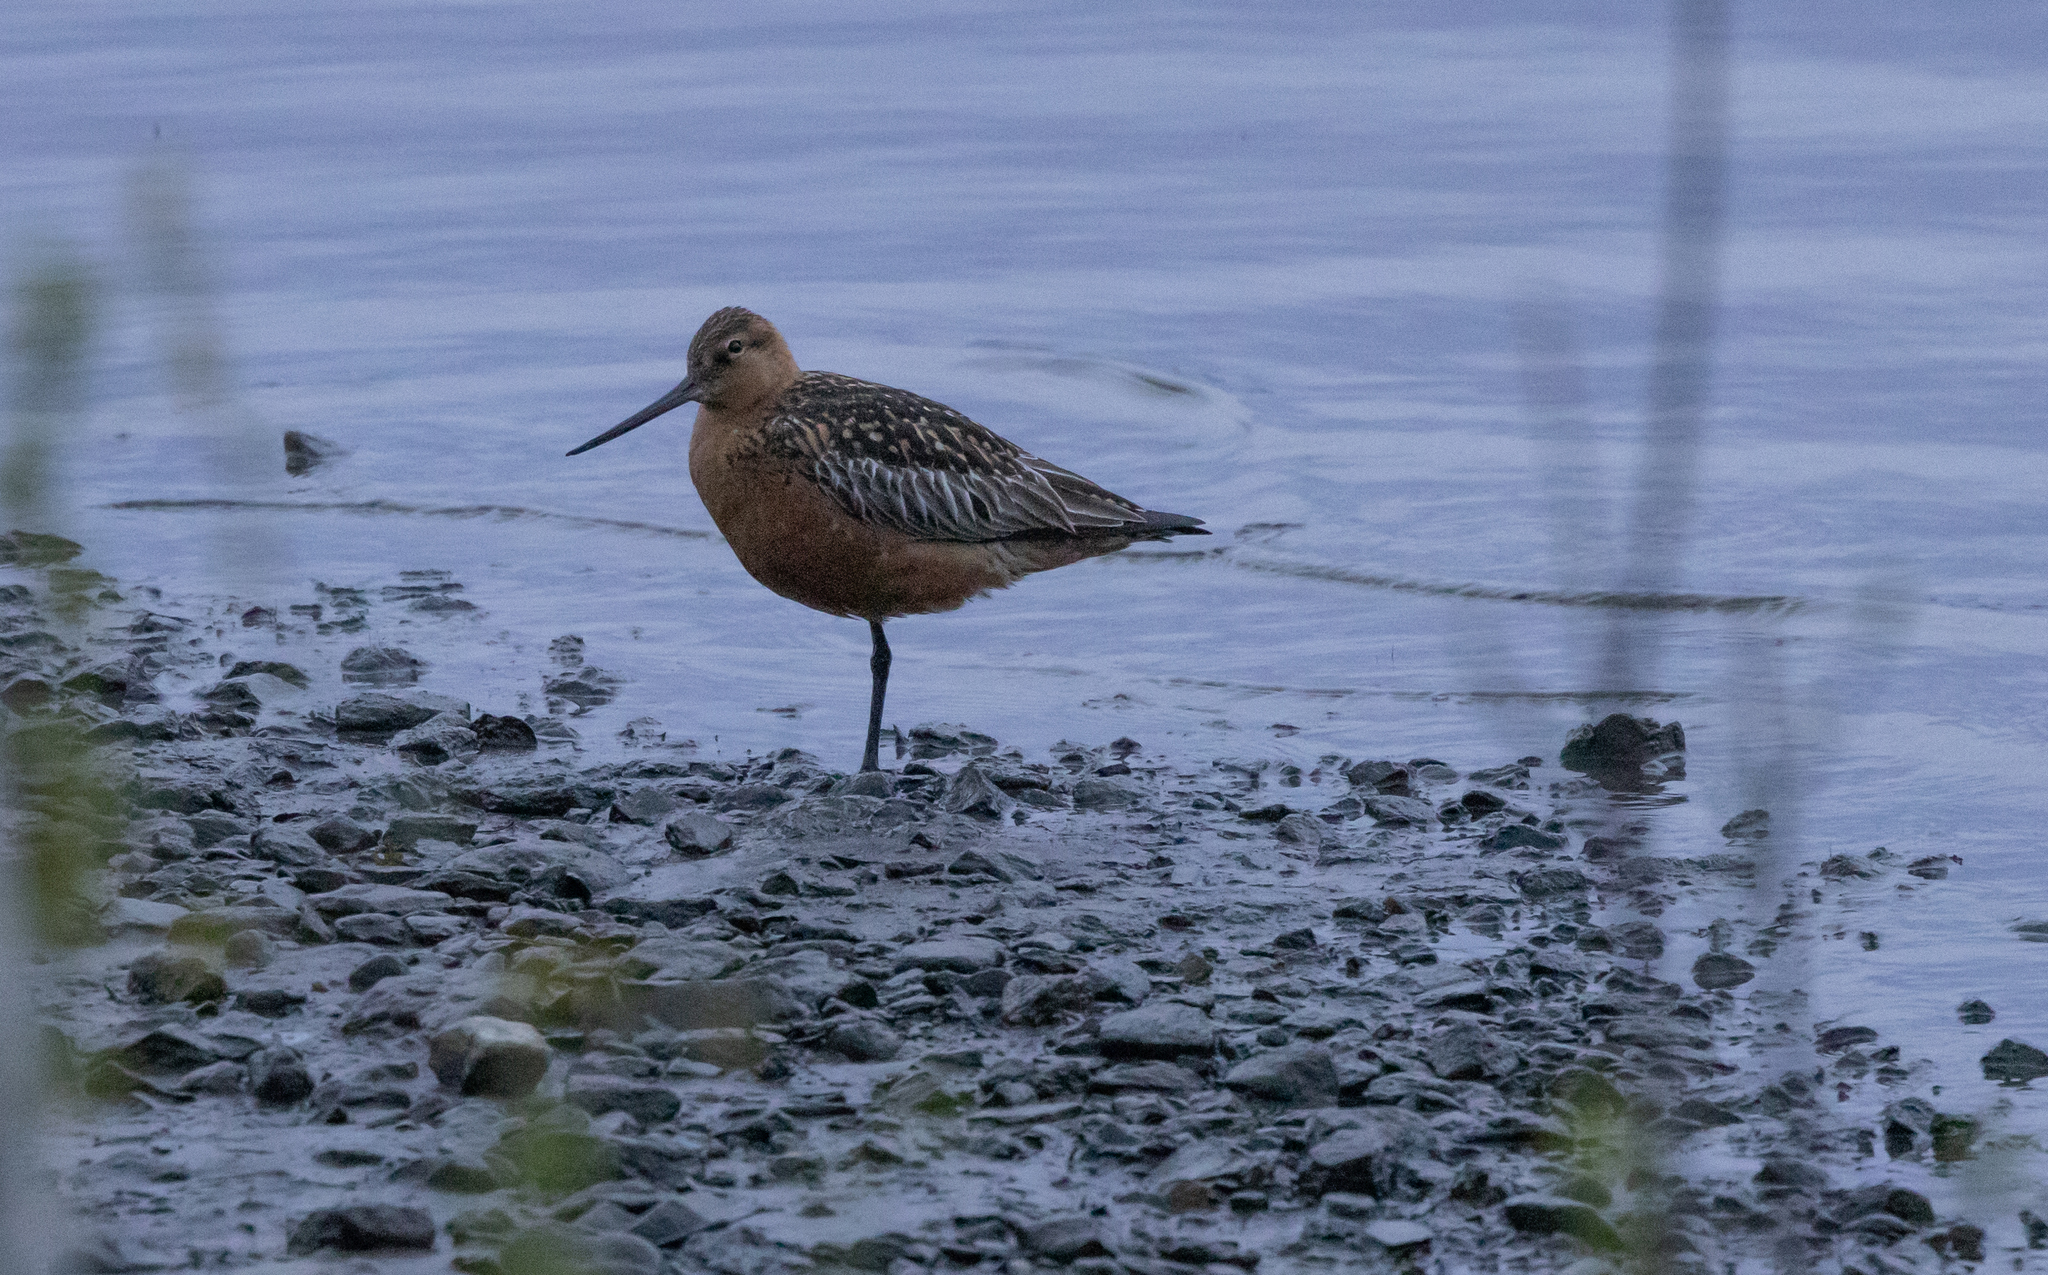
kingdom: Animalia
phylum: Chordata
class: Aves
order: Charadriiformes
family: Scolopacidae
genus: Limosa
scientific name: Limosa lapponica
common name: Bar-tailed godwit
